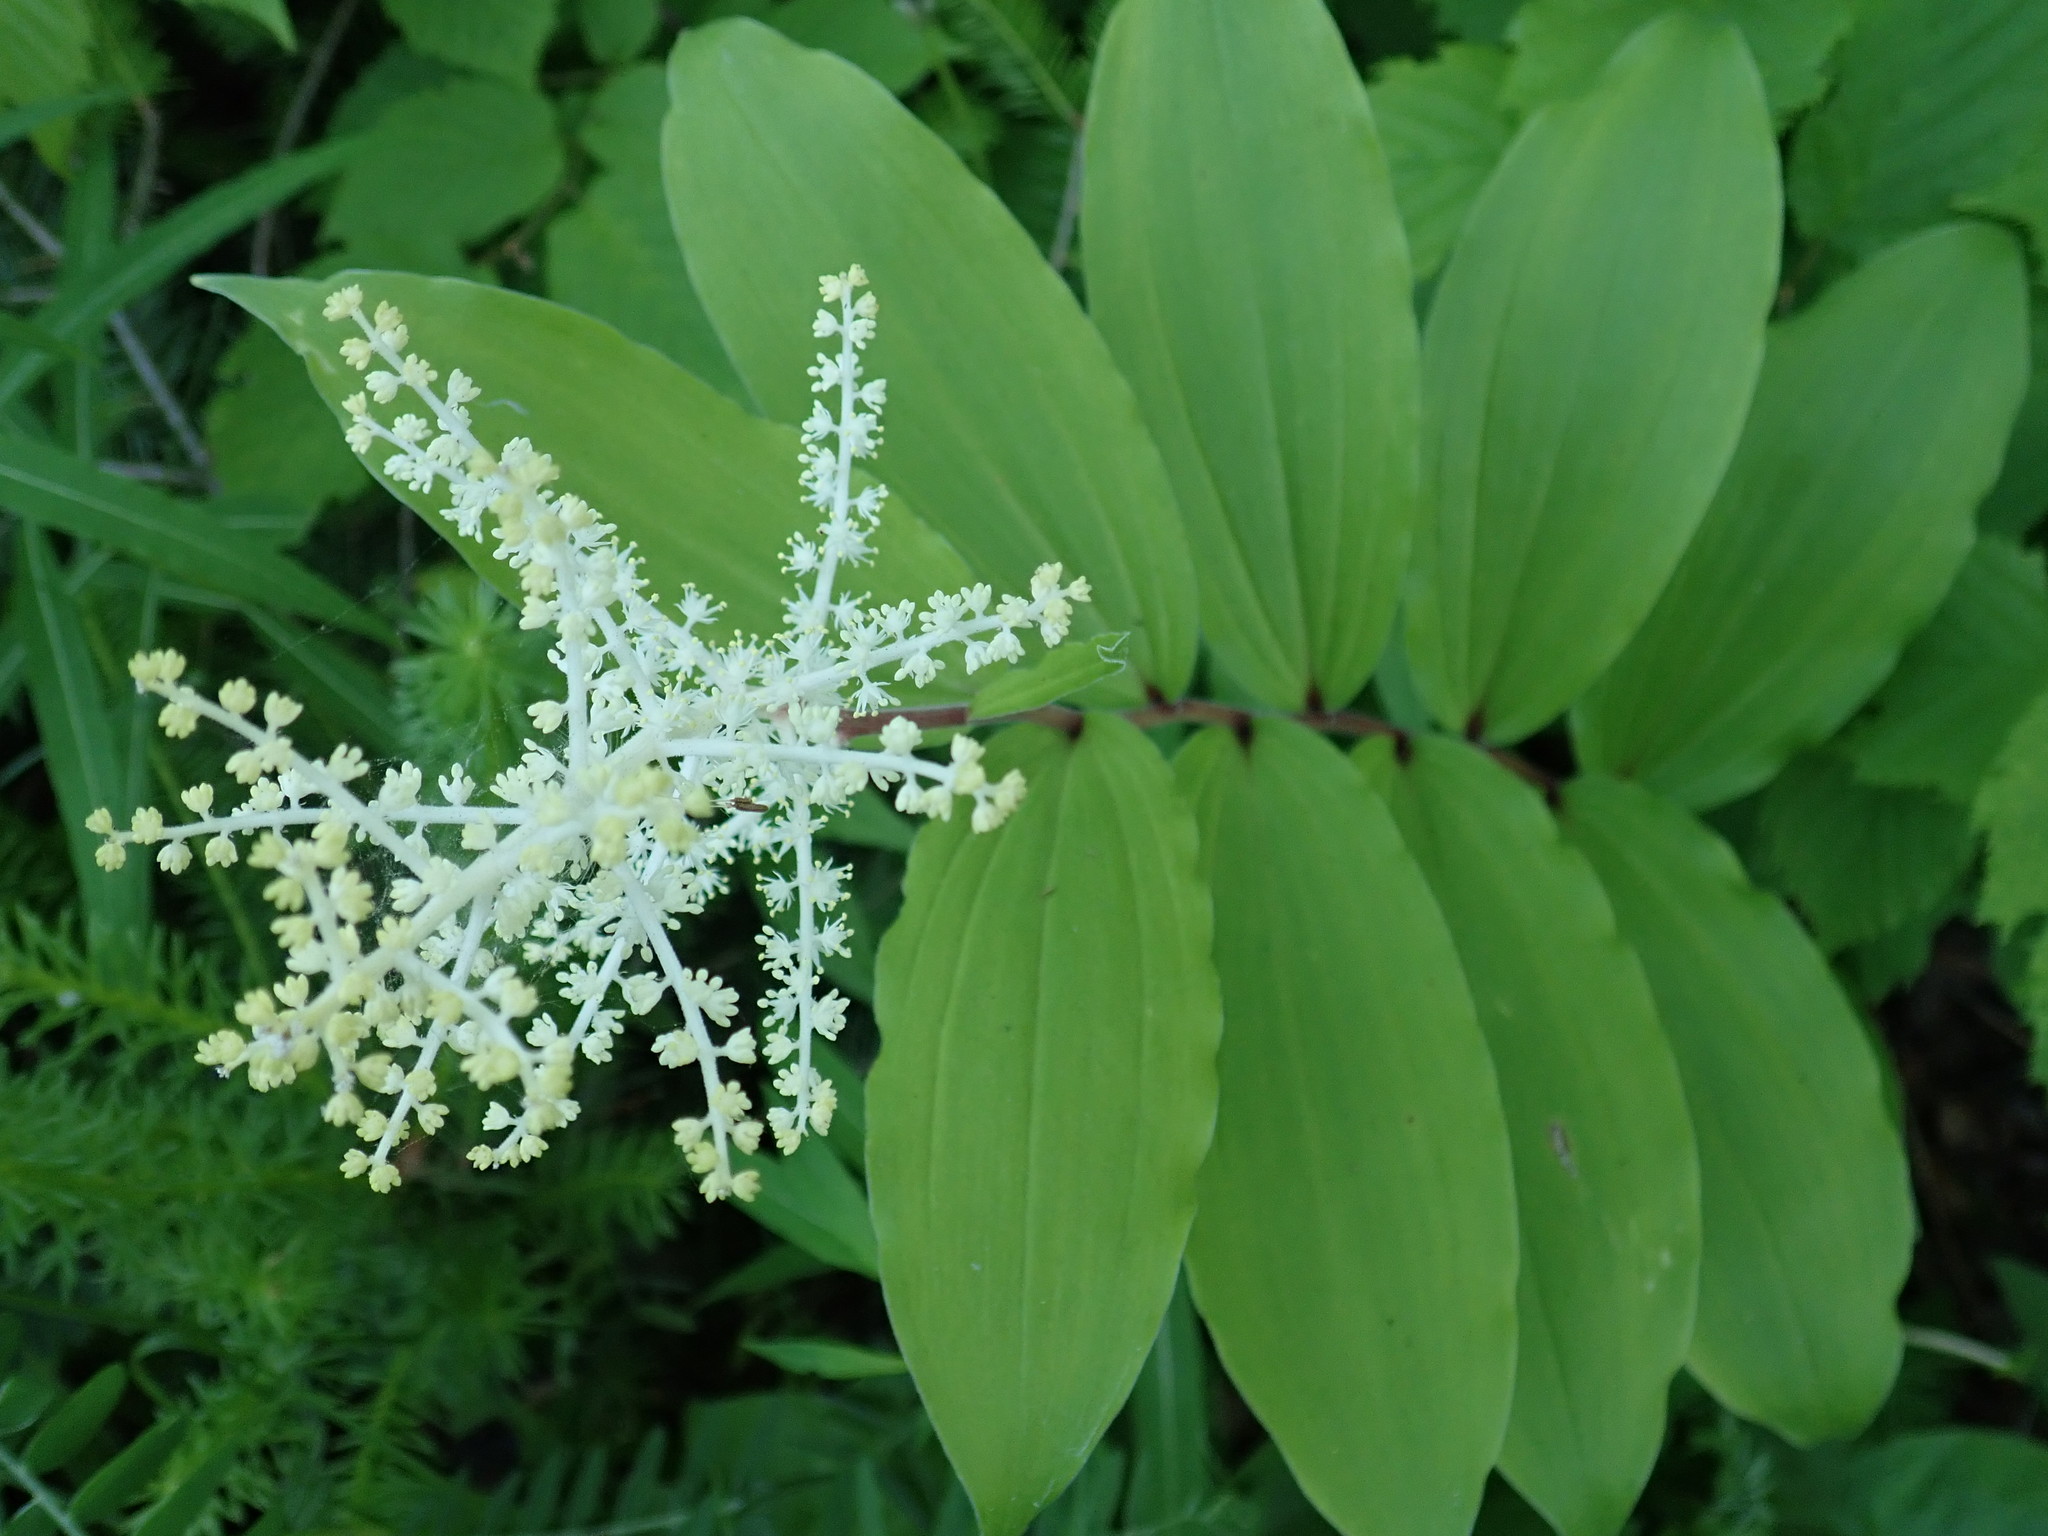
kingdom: Plantae
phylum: Tracheophyta
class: Liliopsida
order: Asparagales
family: Asparagaceae
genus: Maianthemum
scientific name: Maianthemum racemosum
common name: False spikenard
